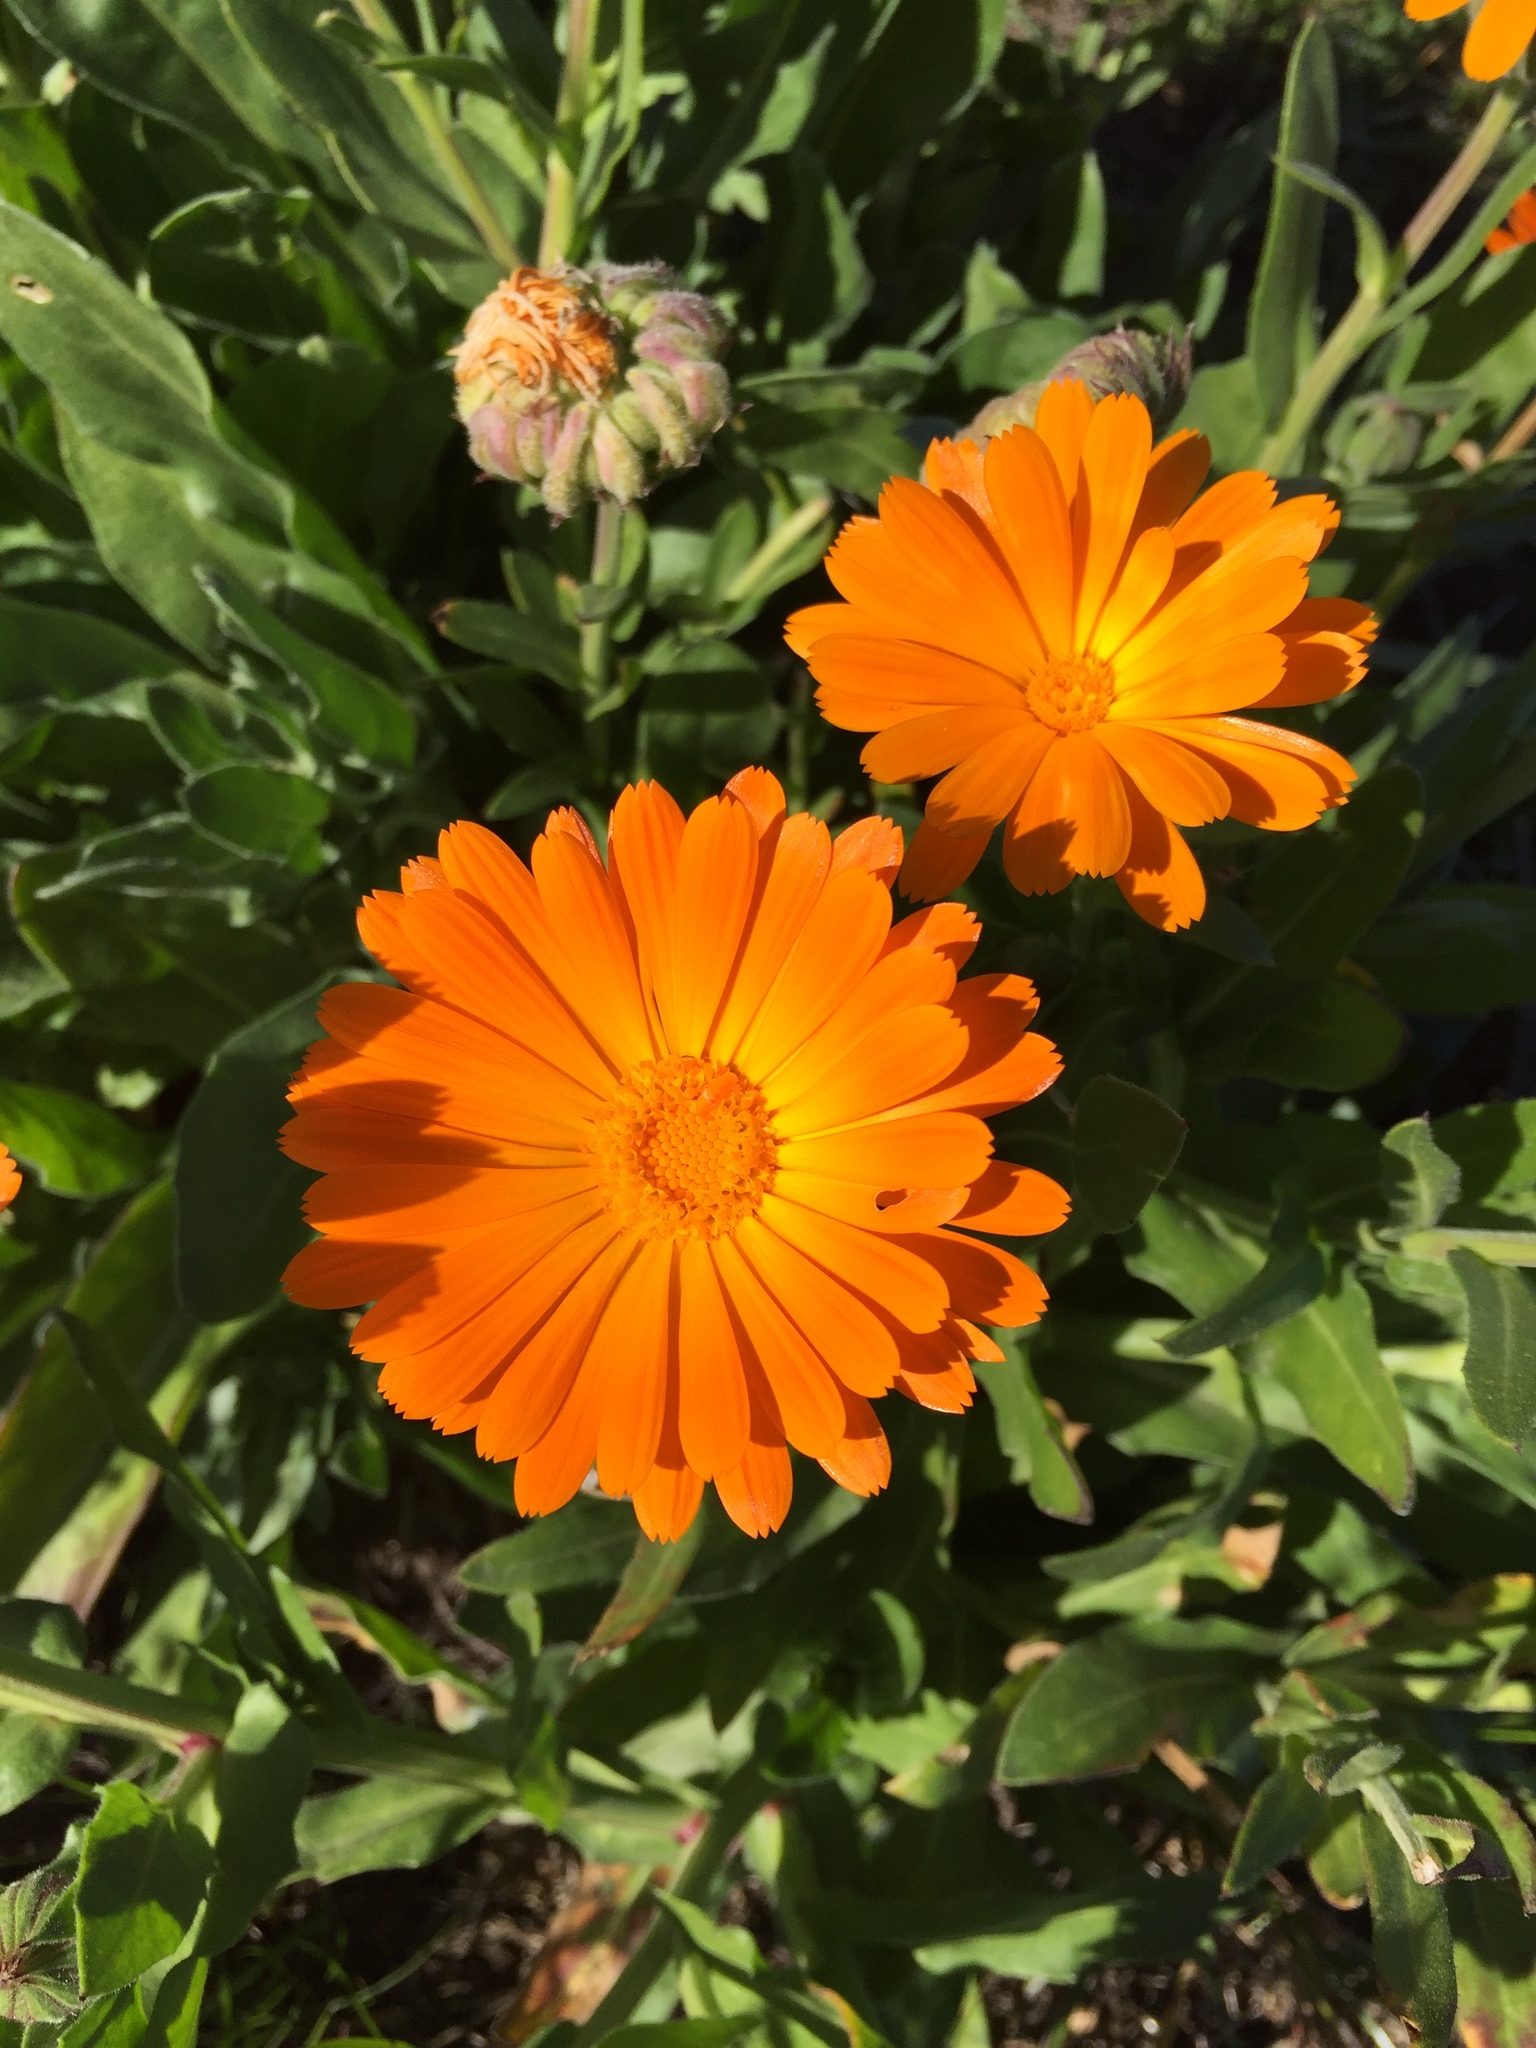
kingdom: Plantae
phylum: Tracheophyta
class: Magnoliopsida
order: Asterales
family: Asteraceae
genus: Calendula
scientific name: Calendula officinalis
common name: Pot marigold
